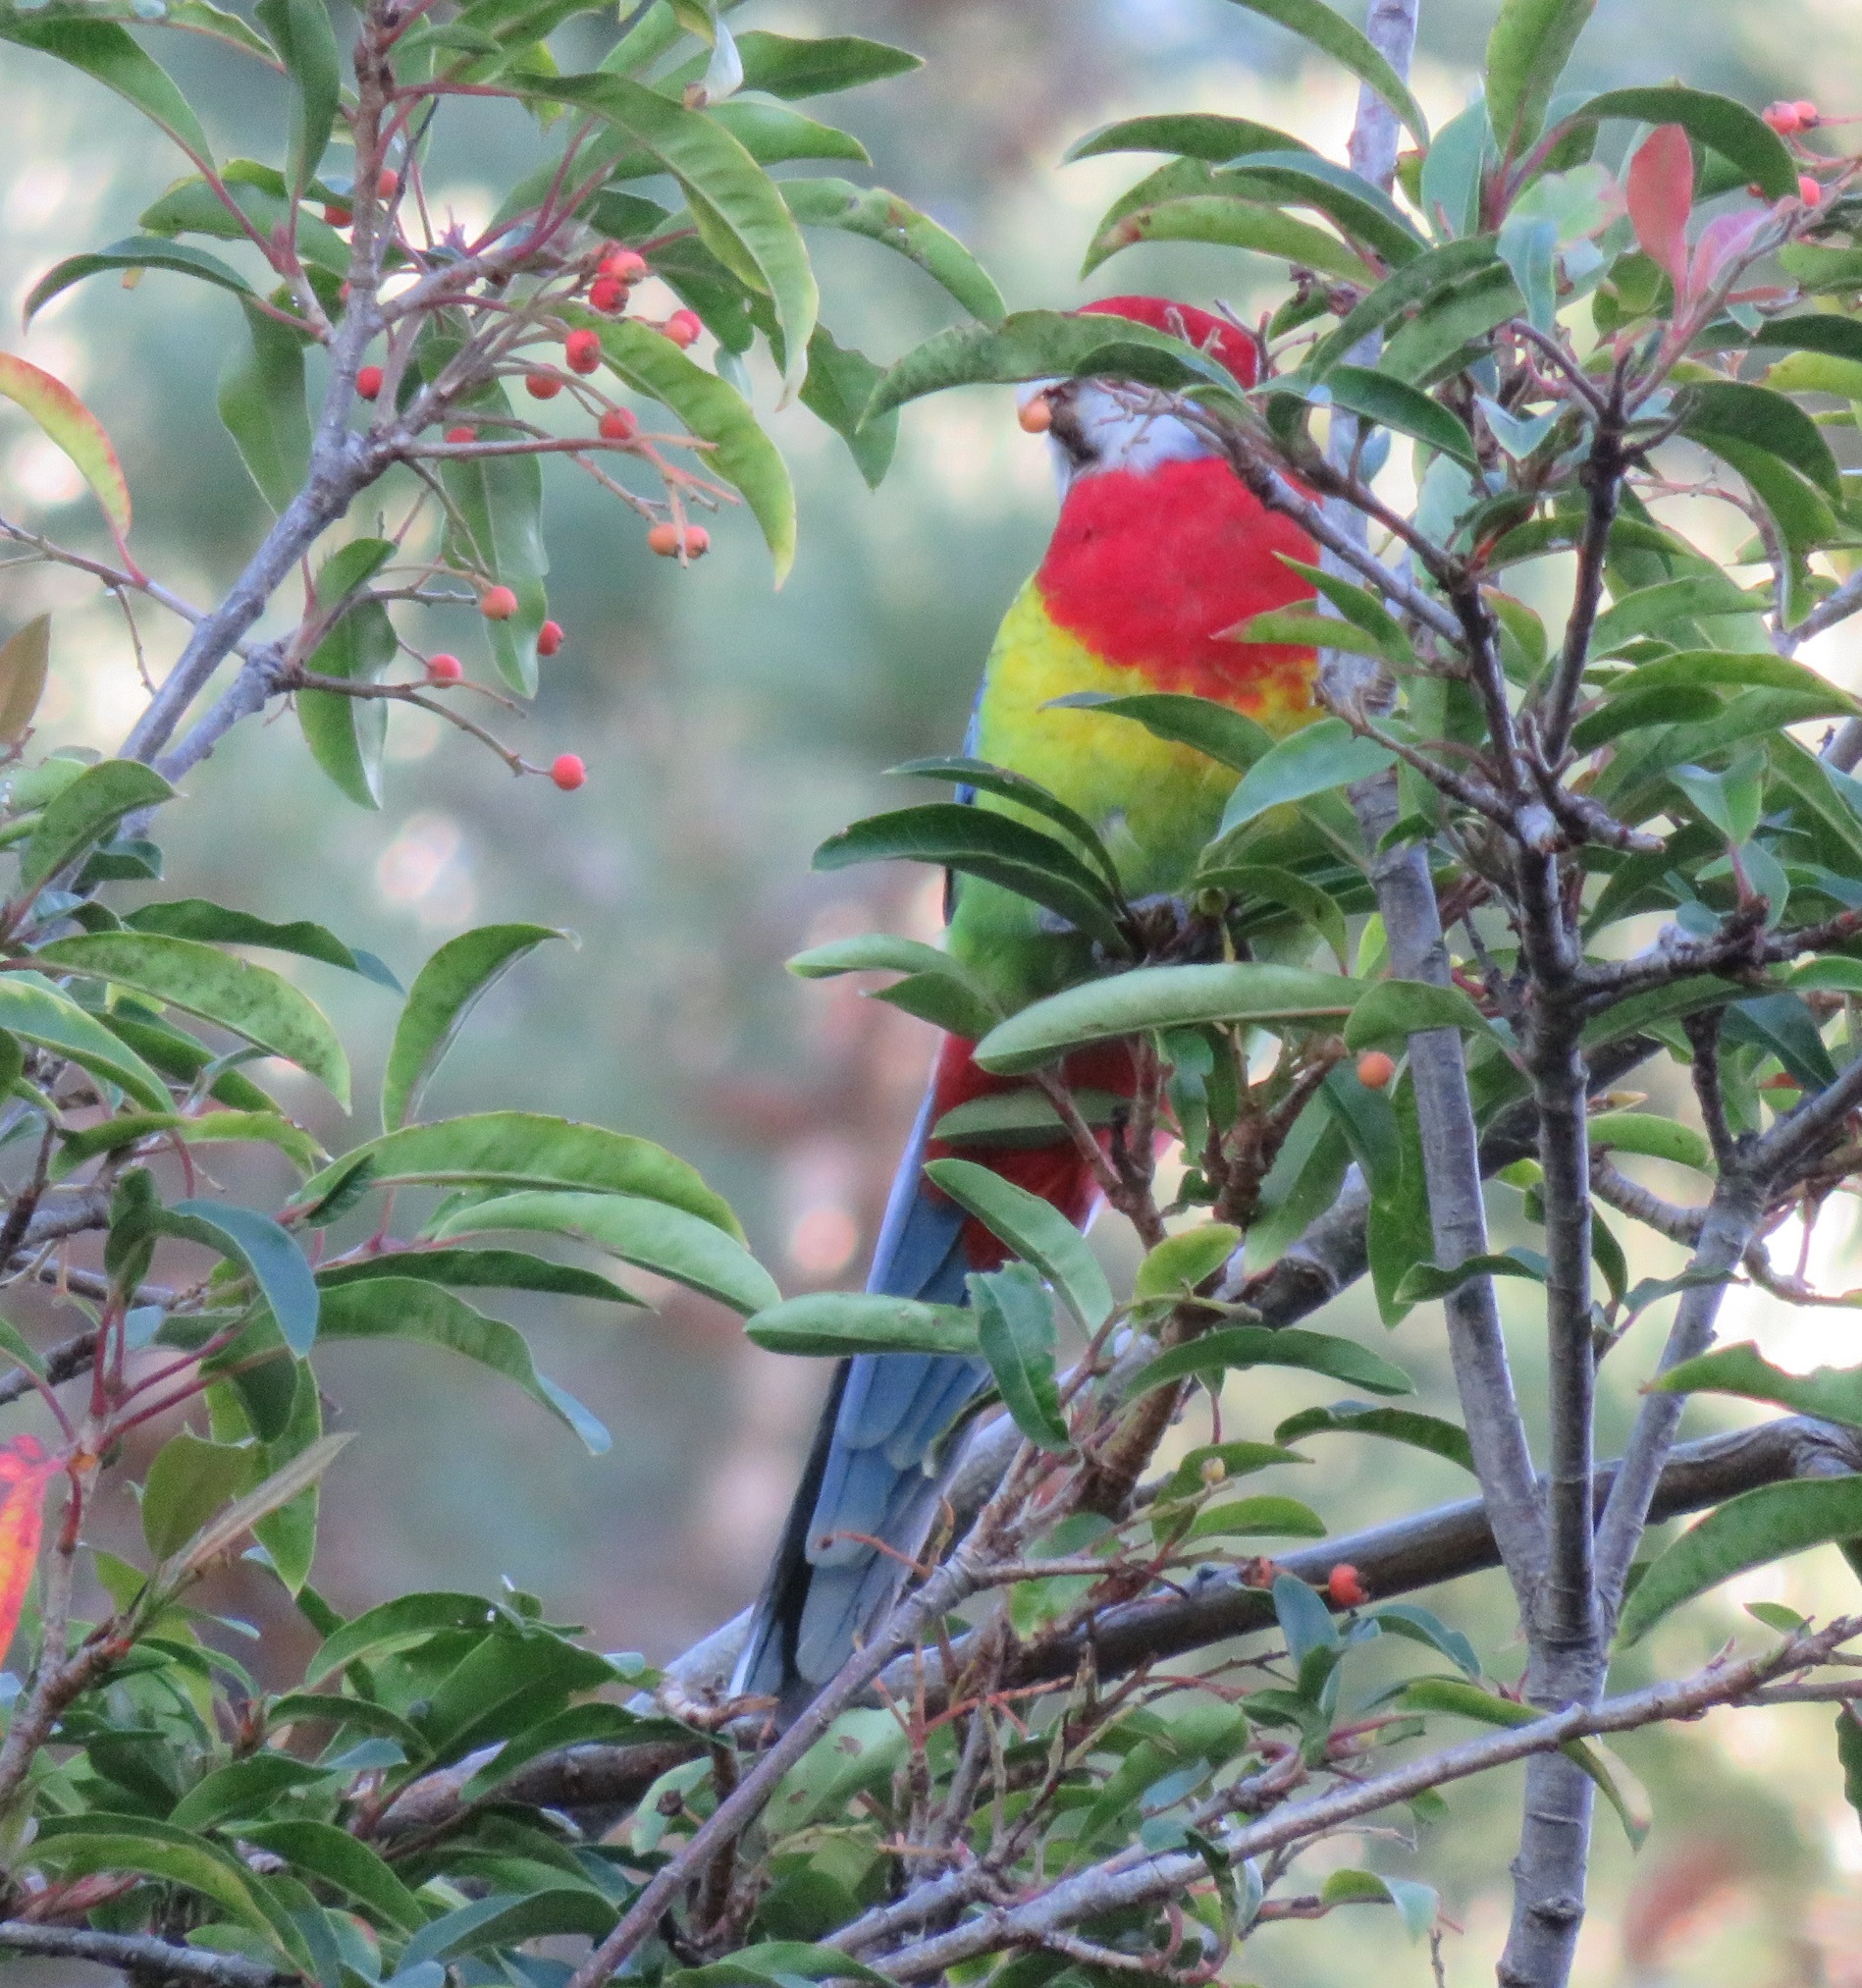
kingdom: Animalia
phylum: Chordata
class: Aves
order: Psittaciformes
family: Psittacidae
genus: Platycercus
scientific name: Platycercus eximius
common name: Eastern rosella
